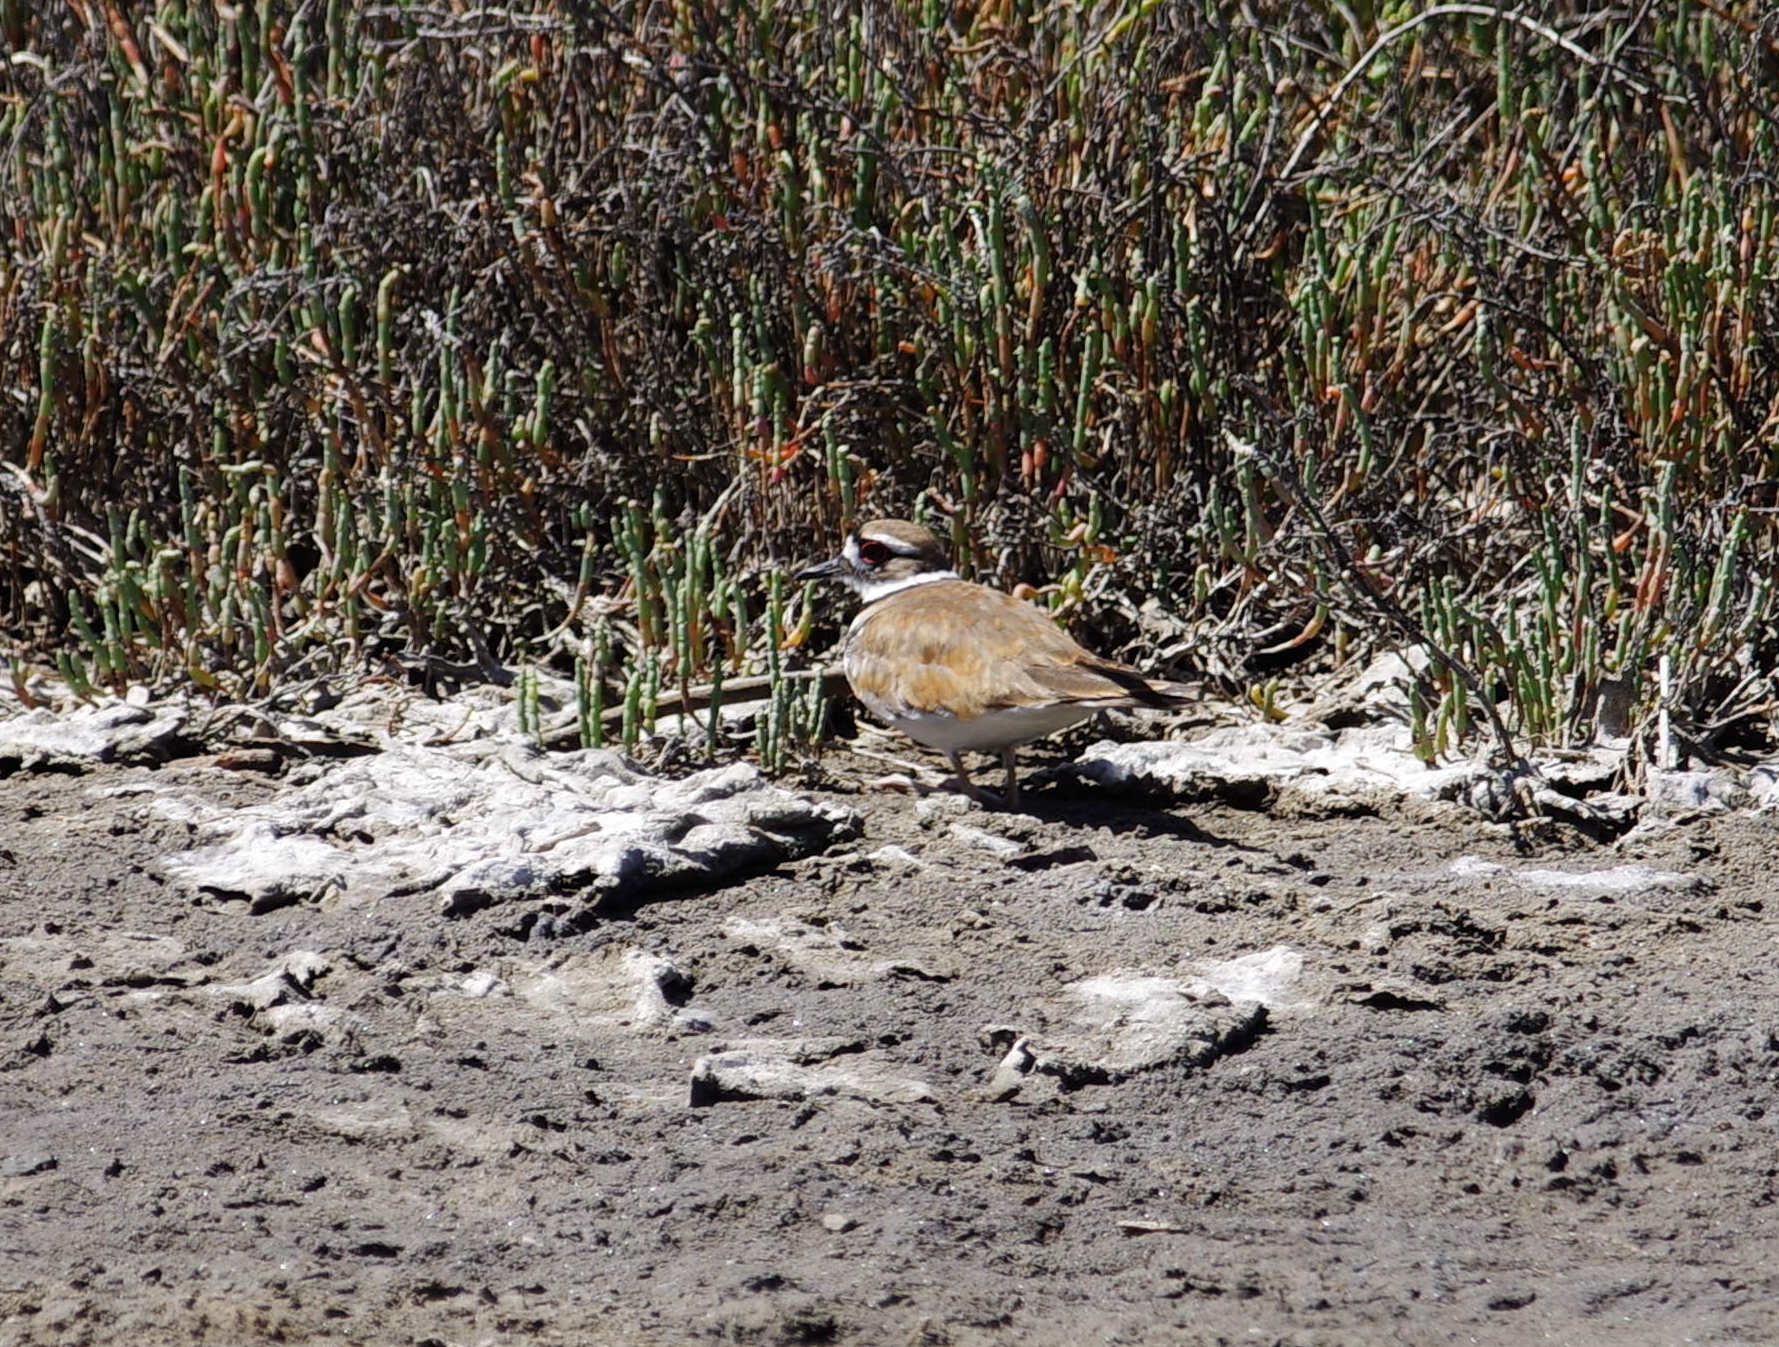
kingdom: Animalia
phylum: Chordata
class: Aves
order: Charadriiformes
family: Charadriidae
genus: Charadrius
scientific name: Charadrius vociferus
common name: Killdeer
